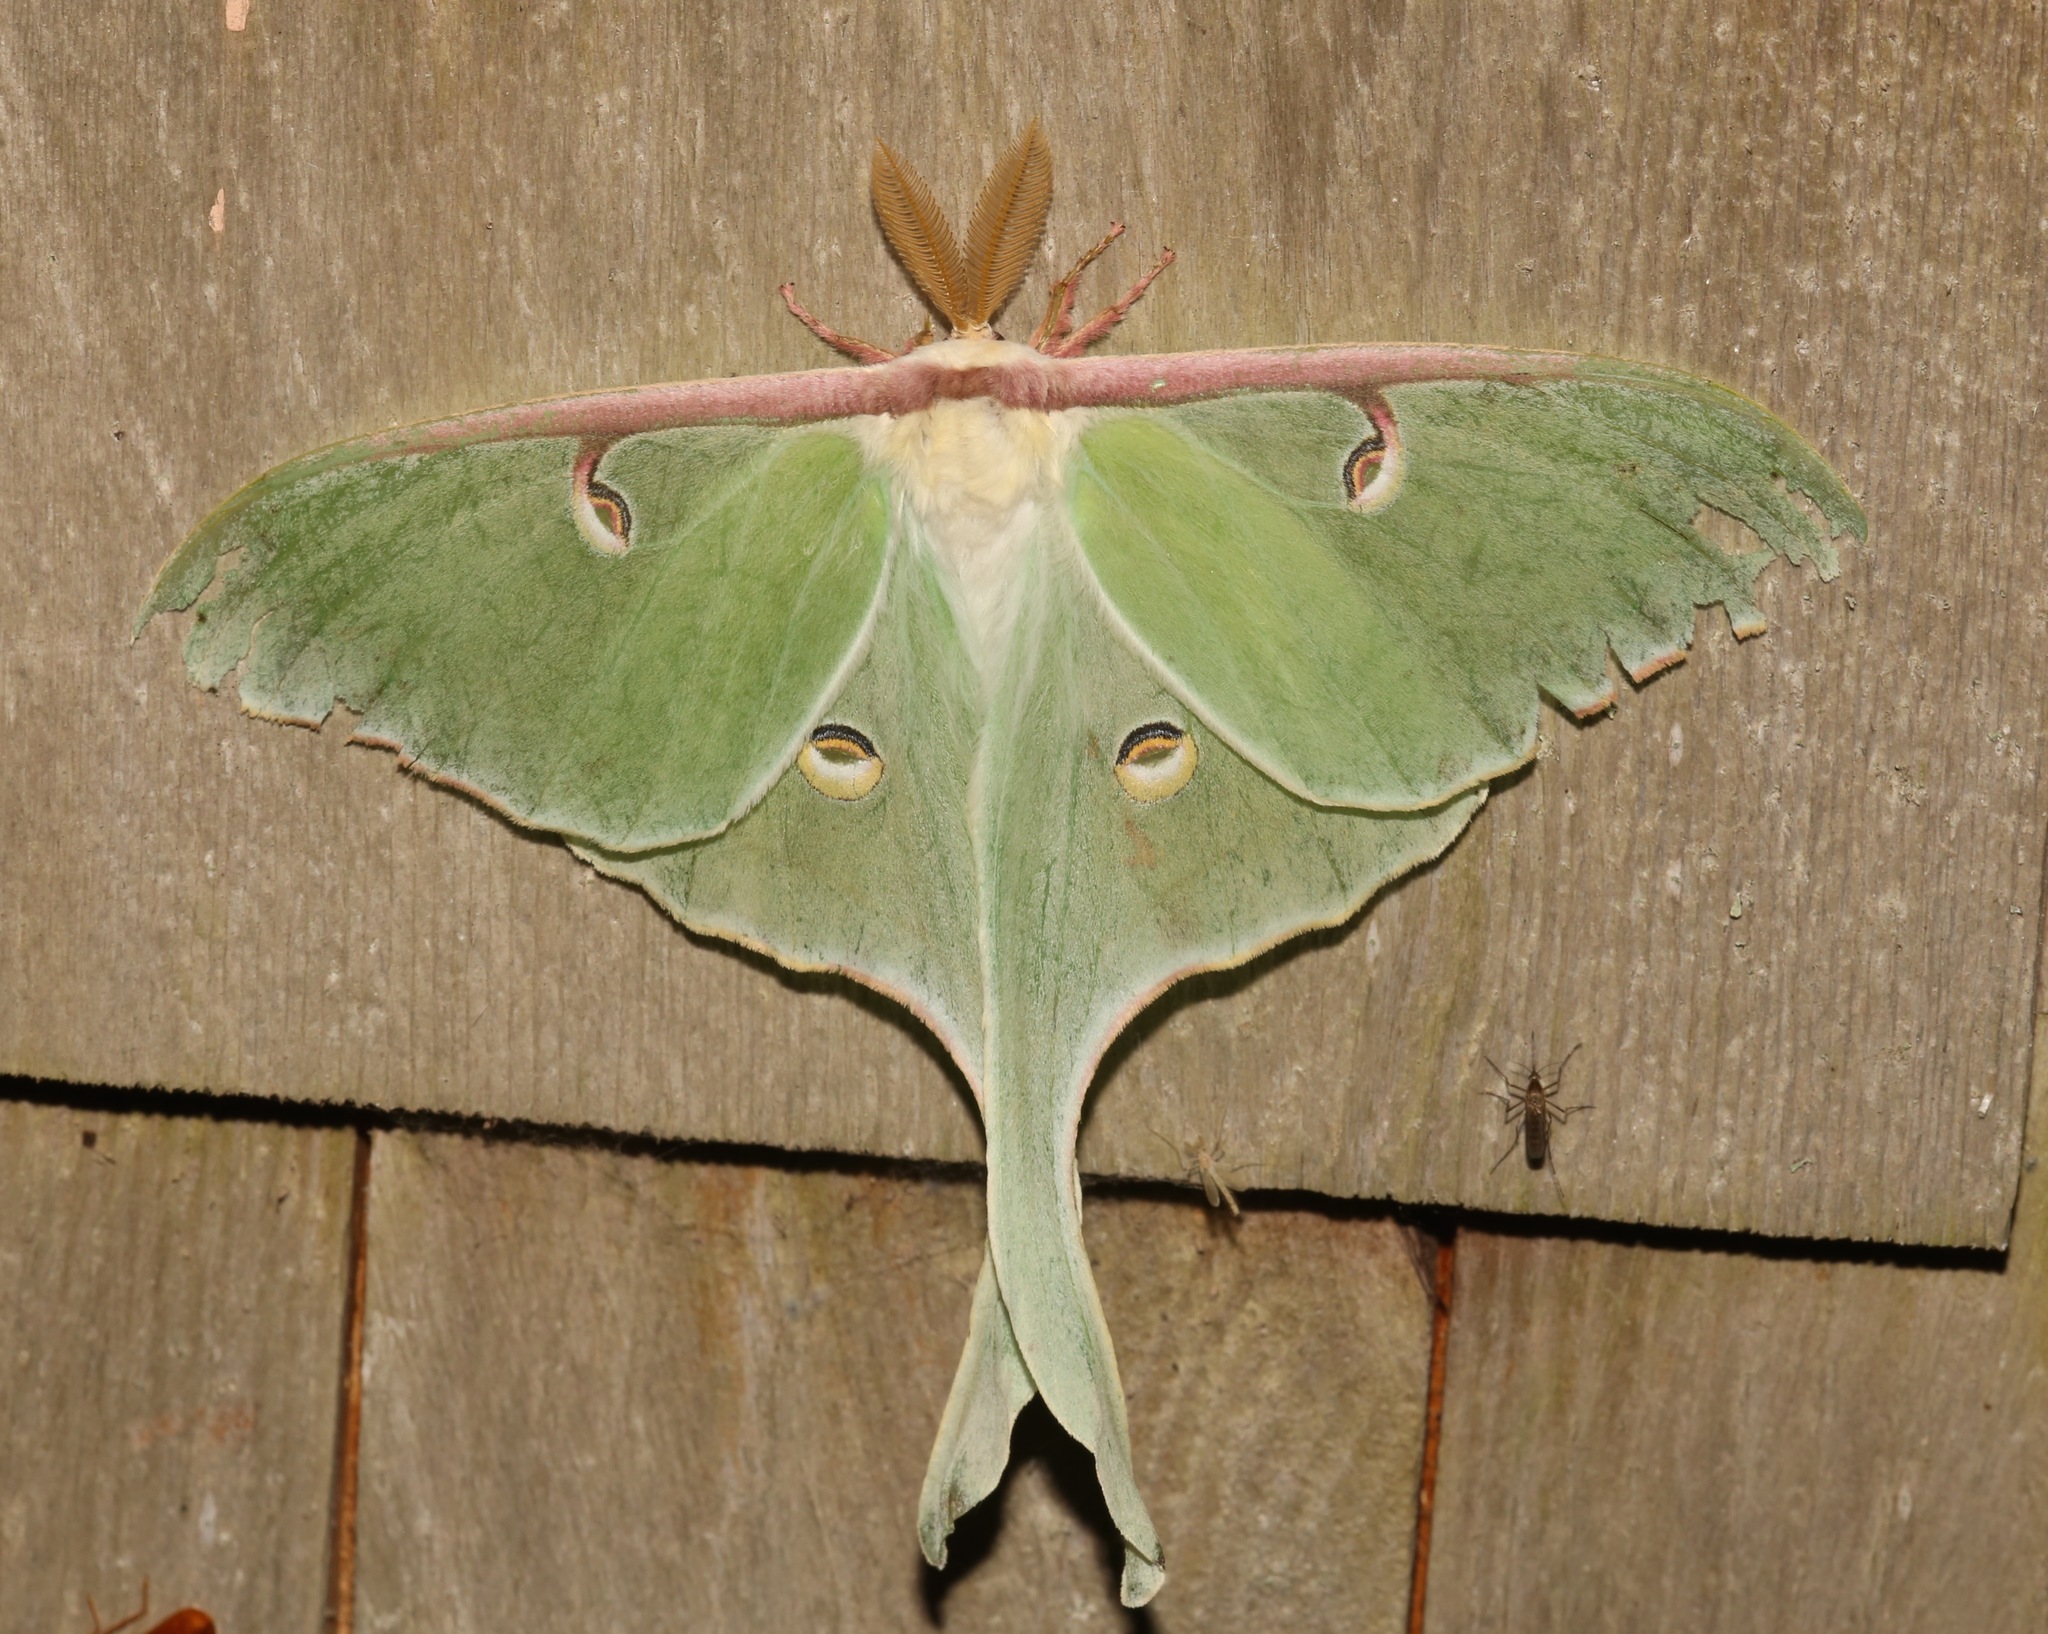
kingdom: Animalia
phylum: Arthropoda
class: Insecta
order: Lepidoptera
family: Saturniidae
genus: Actias
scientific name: Actias luna
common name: Luna moth
